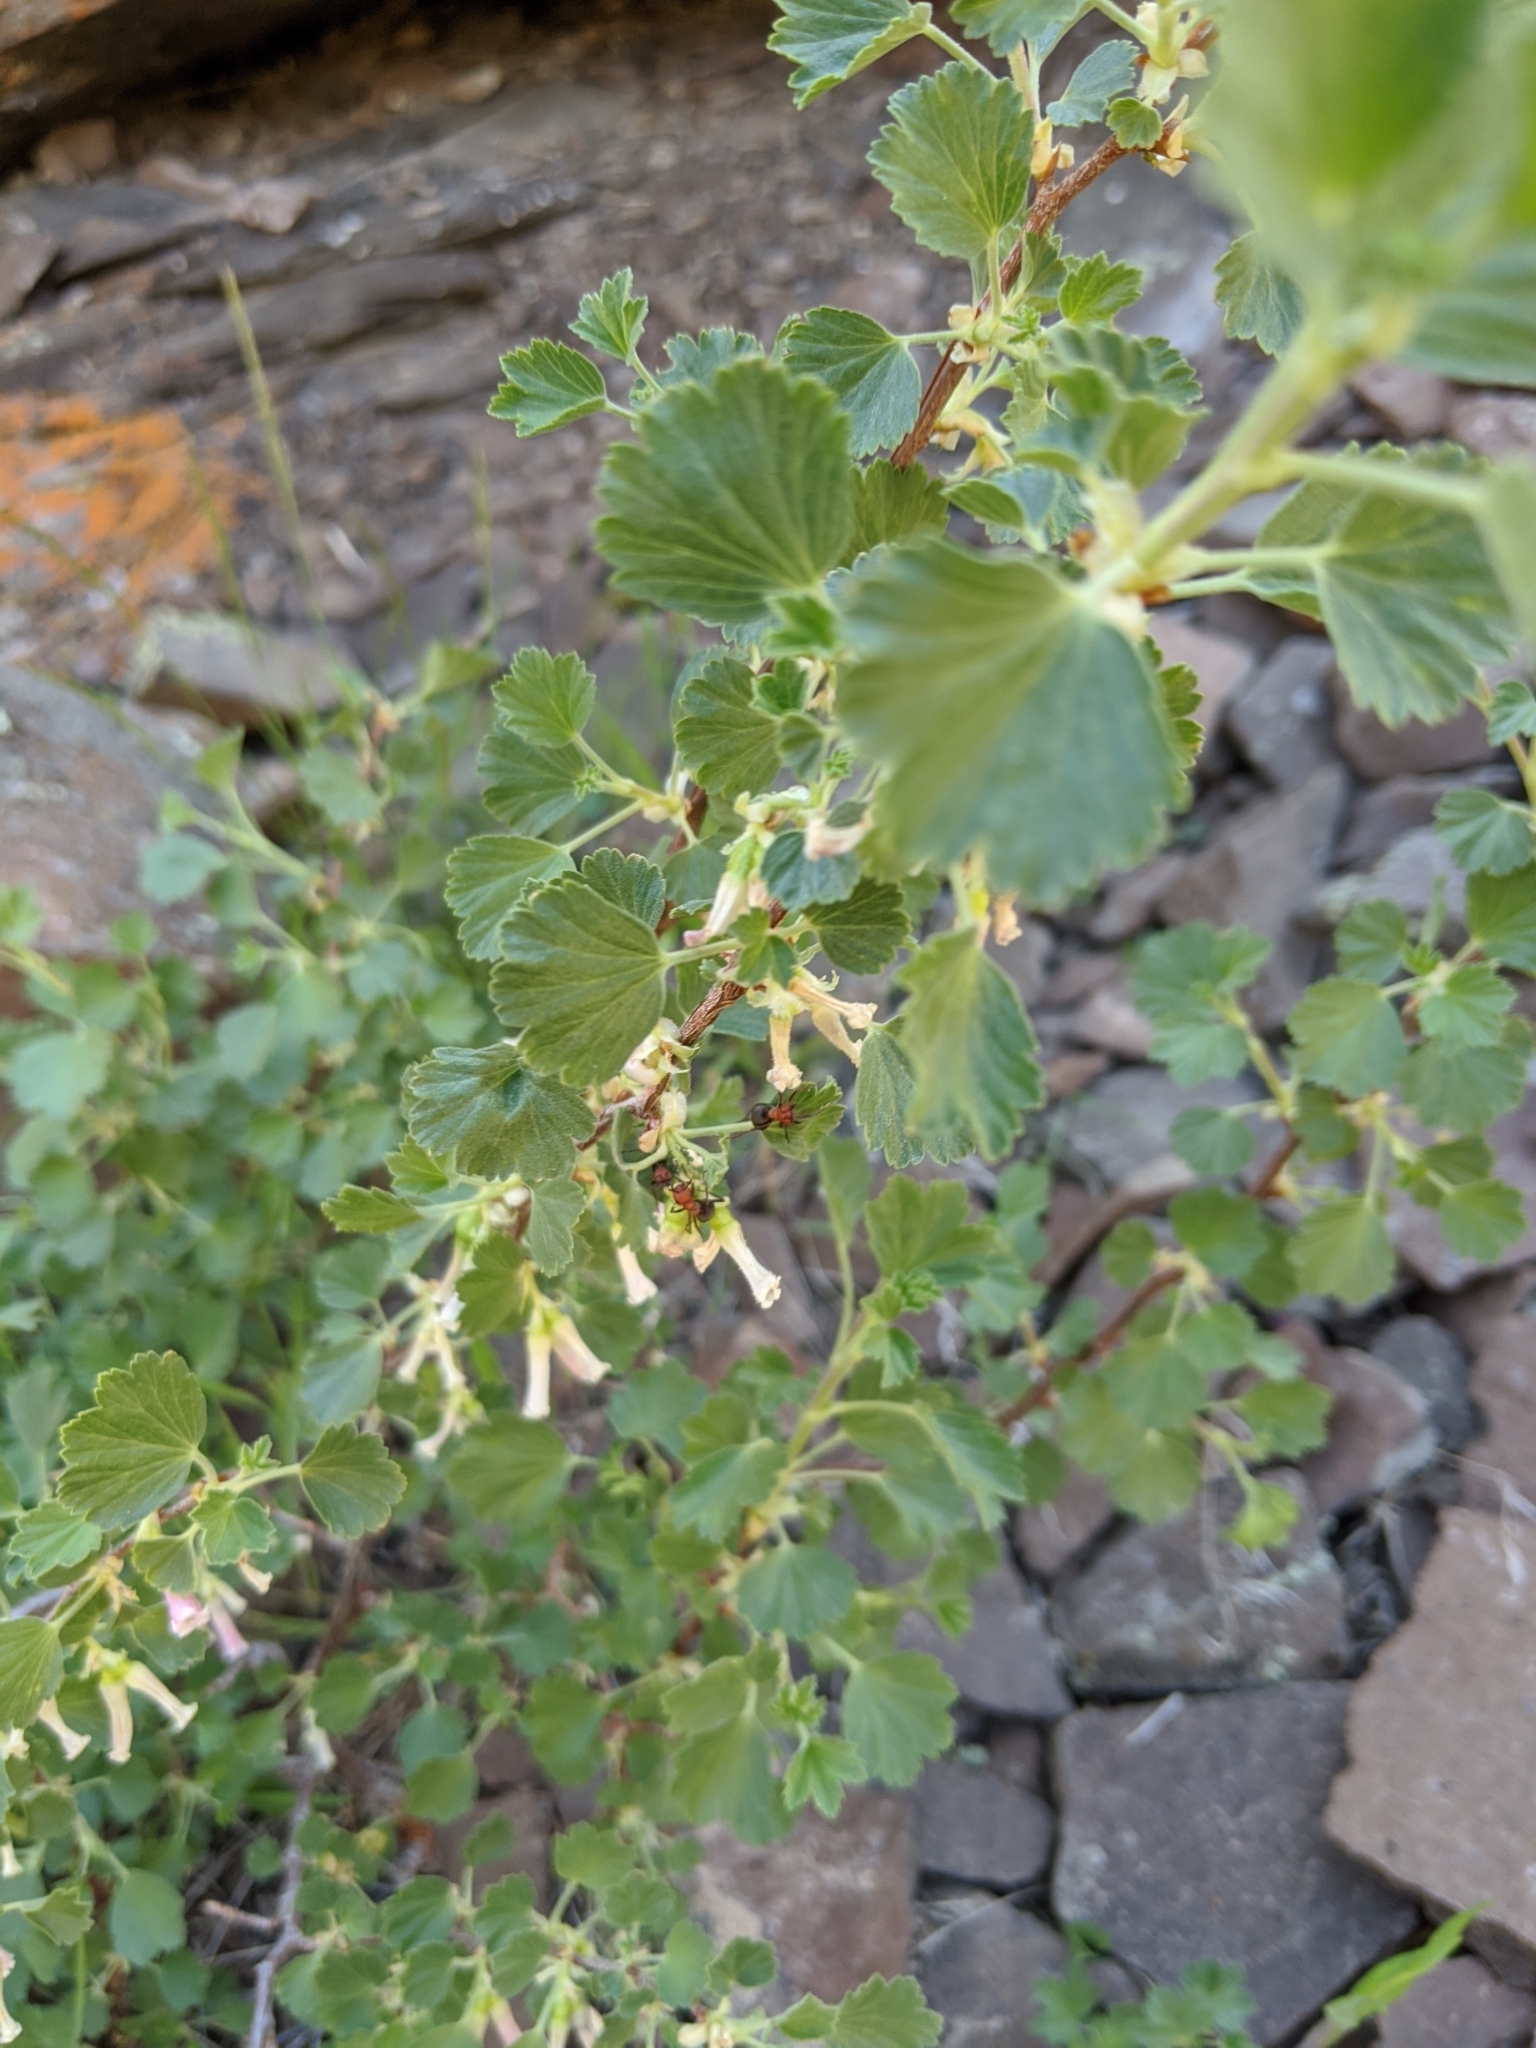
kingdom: Plantae
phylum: Tracheophyta
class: Magnoliopsida
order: Saxifragales
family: Grossulariaceae
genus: Ribes
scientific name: Ribes cereum
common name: Wax currant
